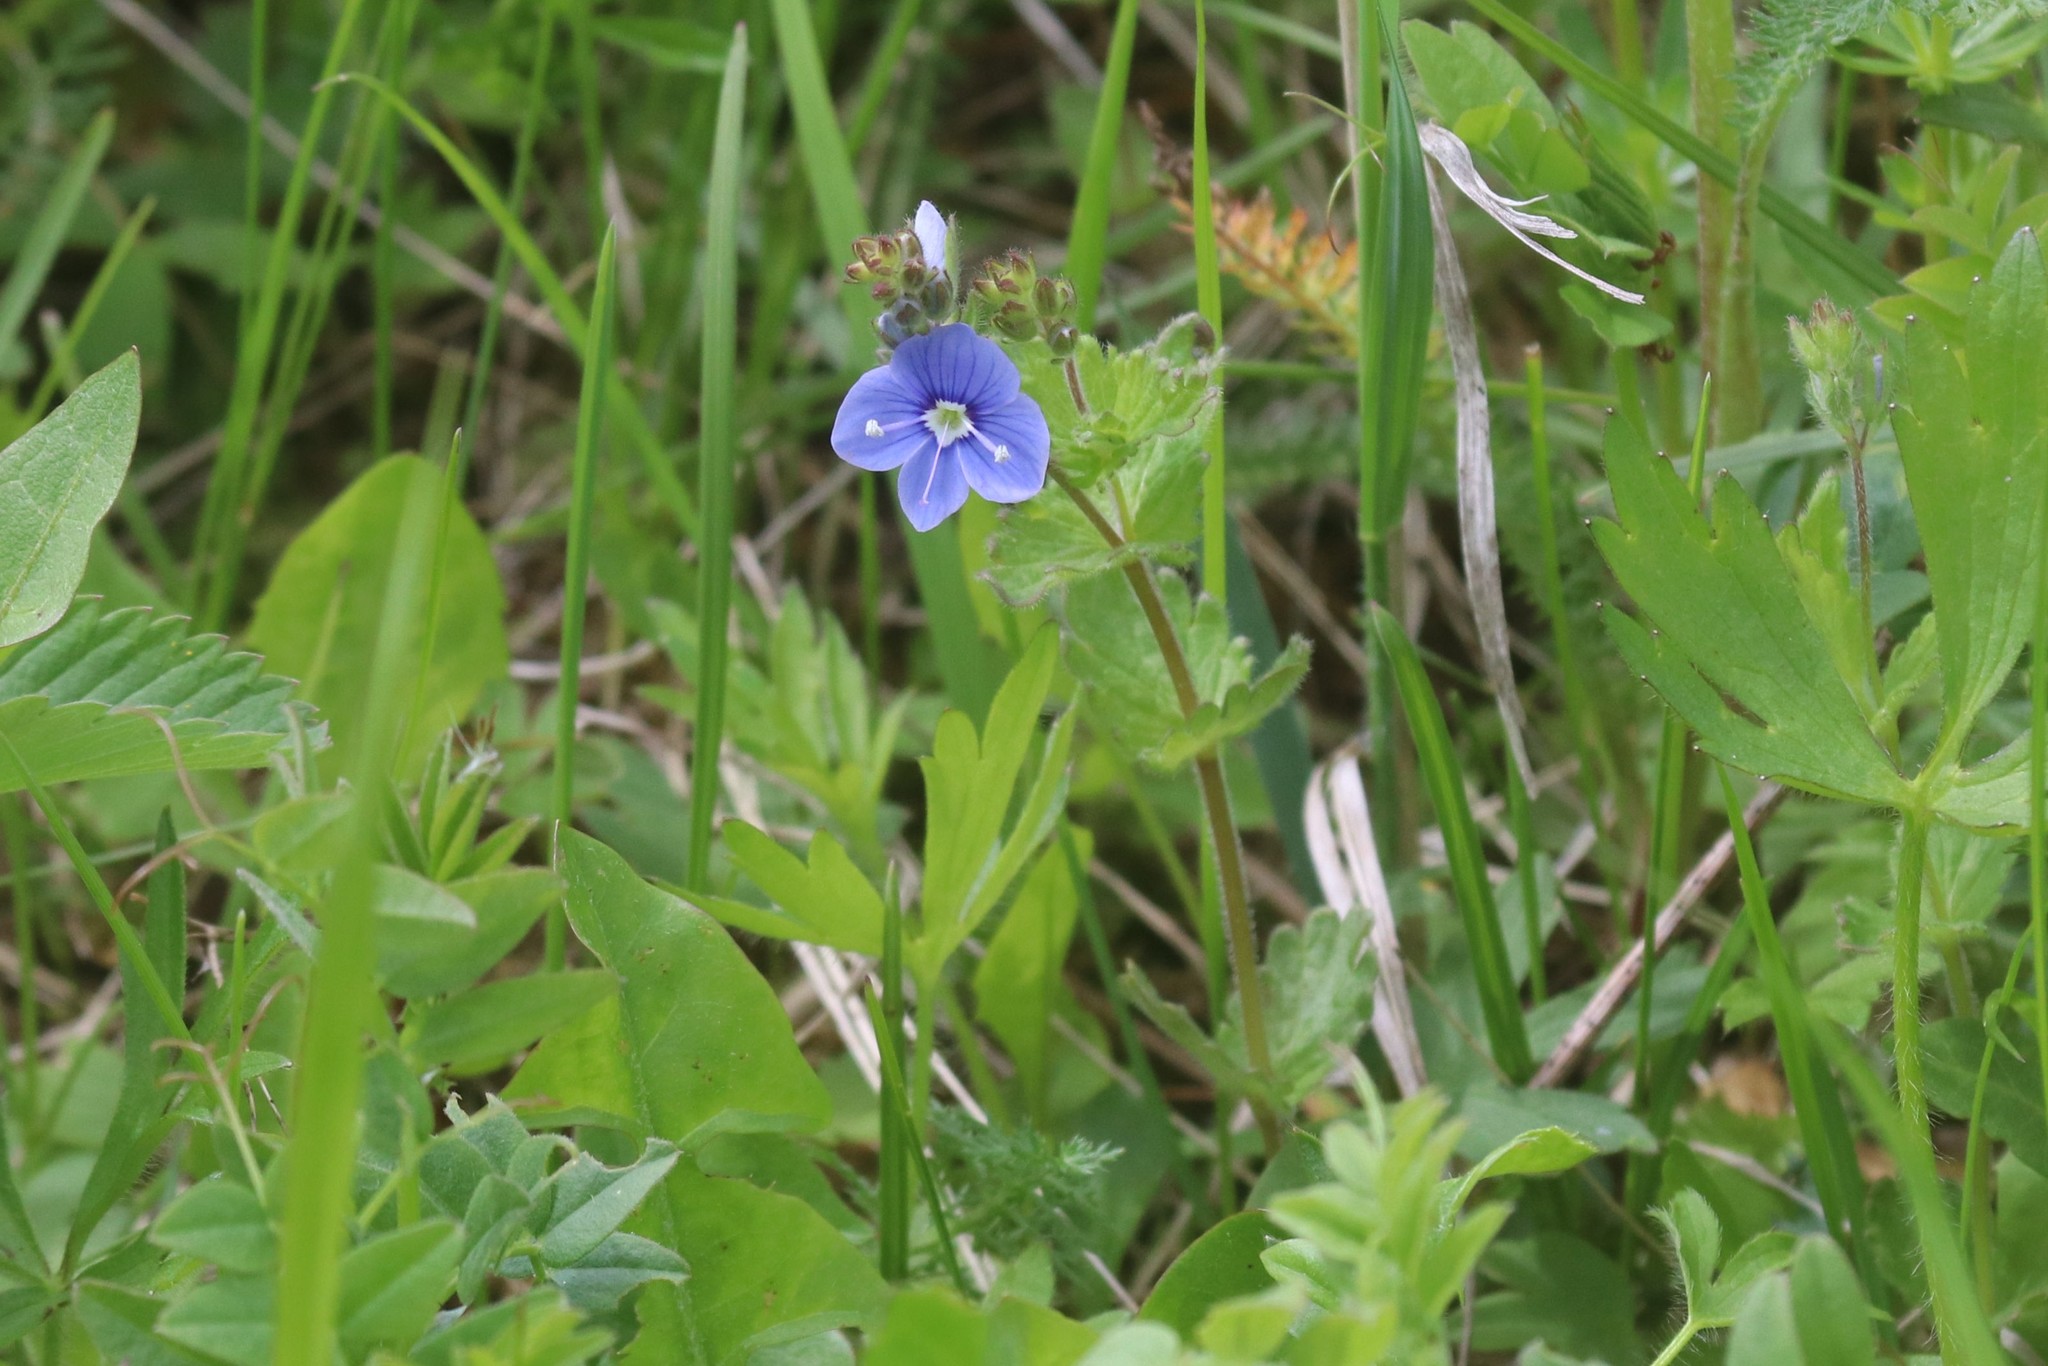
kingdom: Plantae
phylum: Tracheophyta
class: Magnoliopsida
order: Lamiales
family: Plantaginaceae
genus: Veronica
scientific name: Veronica chamaedrys
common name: Germander speedwell
